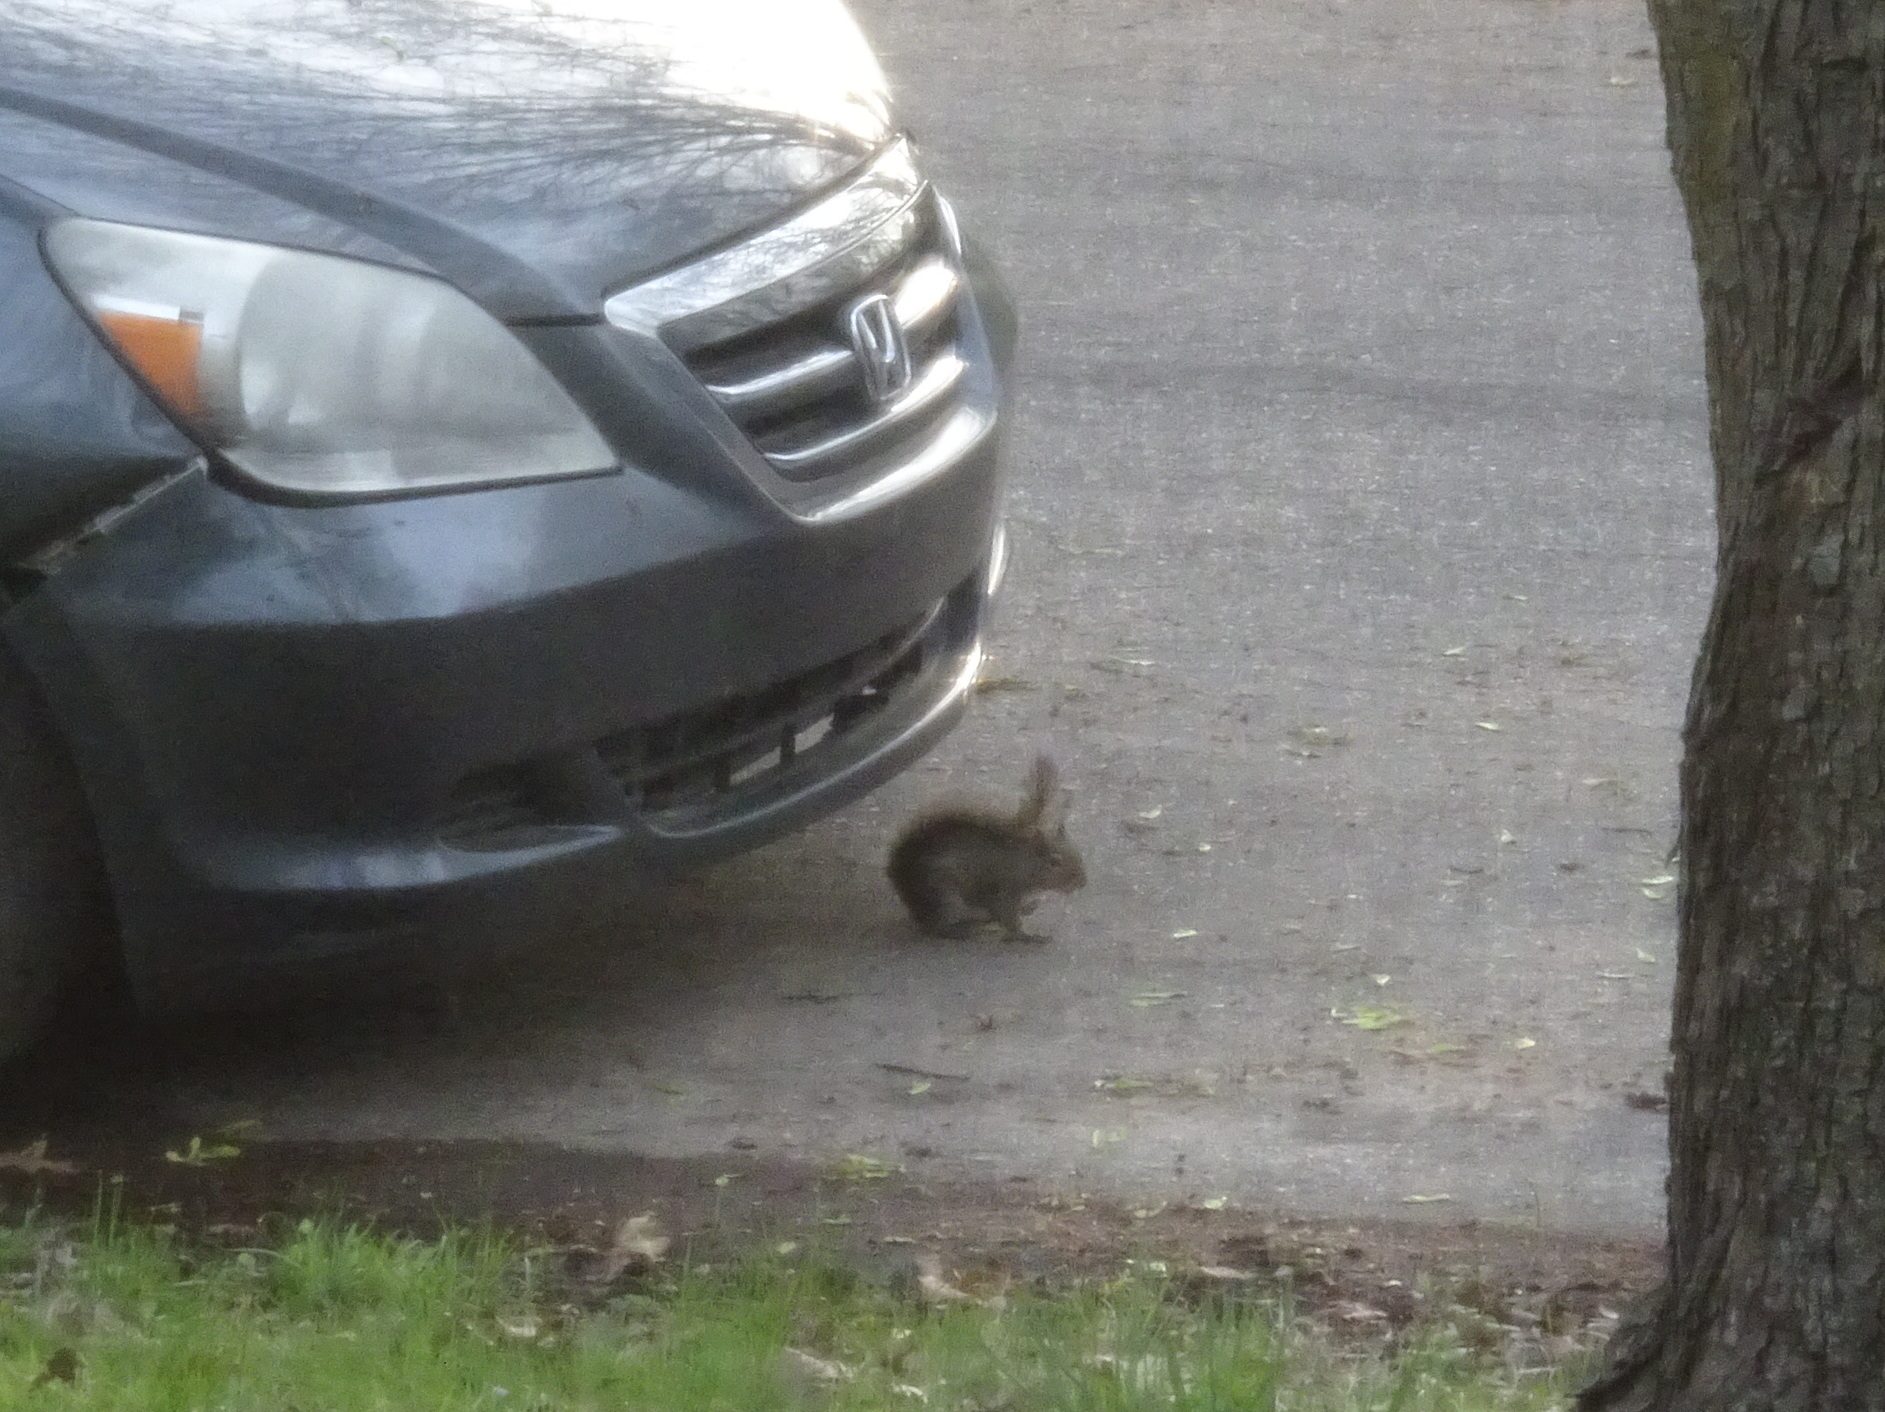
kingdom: Animalia
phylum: Chordata
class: Mammalia
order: Rodentia
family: Sciuridae
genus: Sciurus
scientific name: Sciurus carolinensis
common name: Eastern gray squirrel
